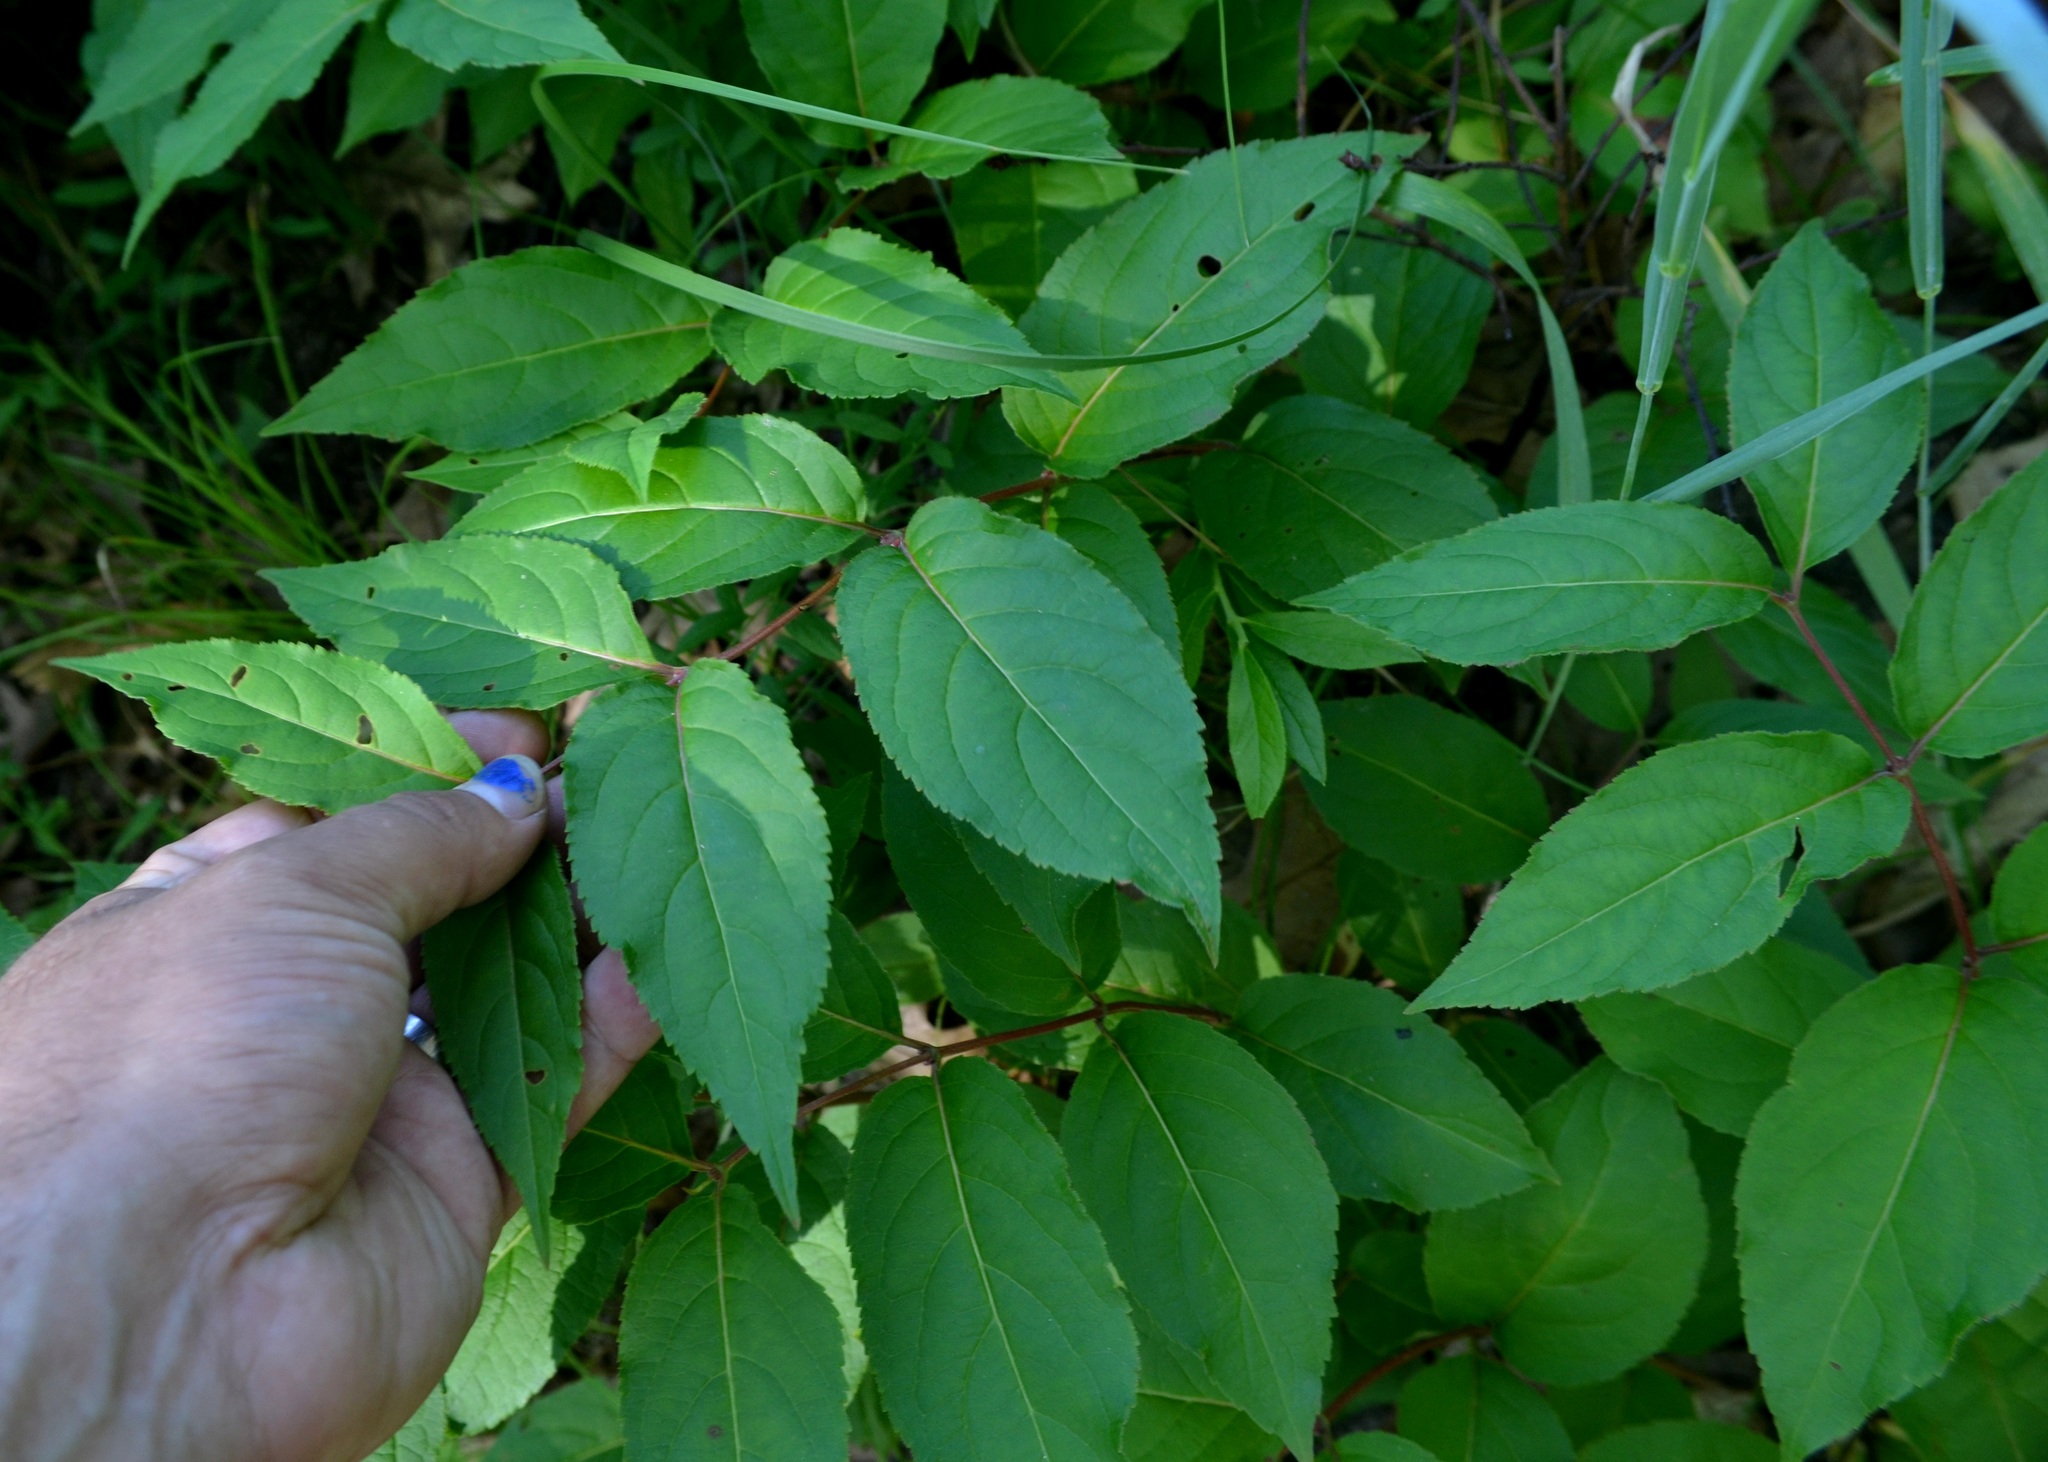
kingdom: Plantae
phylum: Tracheophyta
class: Magnoliopsida
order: Dipsacales
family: Caprifoliaceae
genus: Diervilla
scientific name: Diervilla lonicera
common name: Bush-honeysuckle
